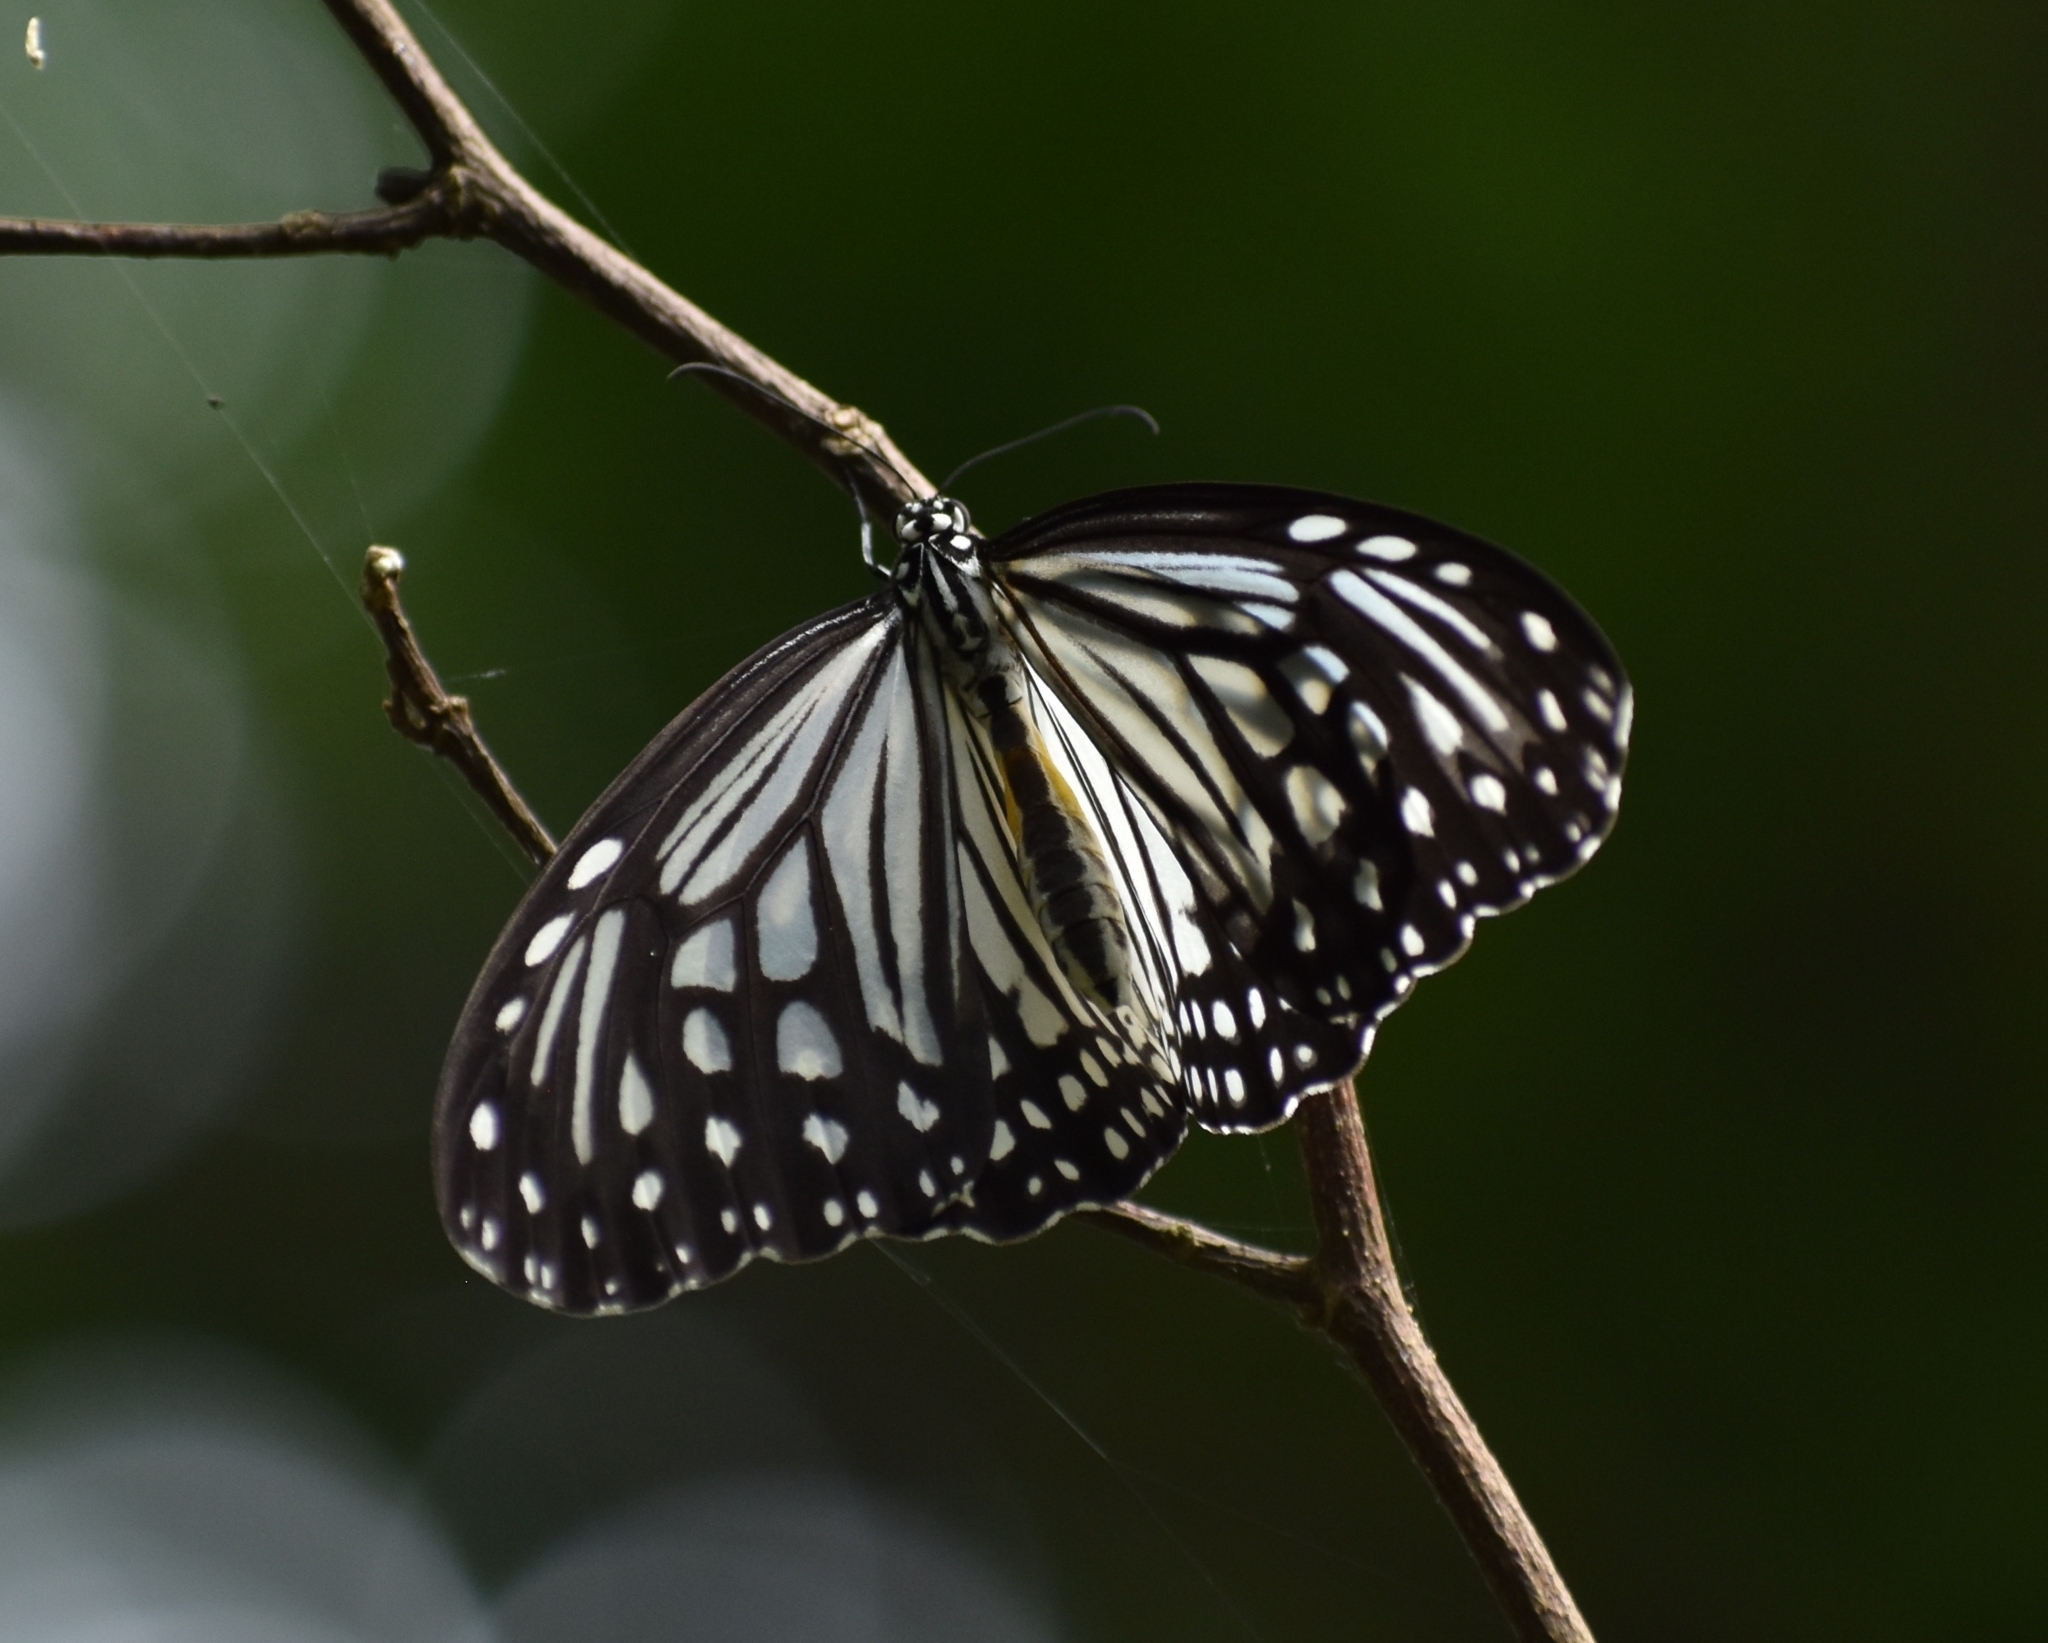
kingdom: Animalia
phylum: Arthropoda
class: Insecta
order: Lepidoptera
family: Nymphalidae
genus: Parantica
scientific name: Parantica aglea
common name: Glassy tiger
